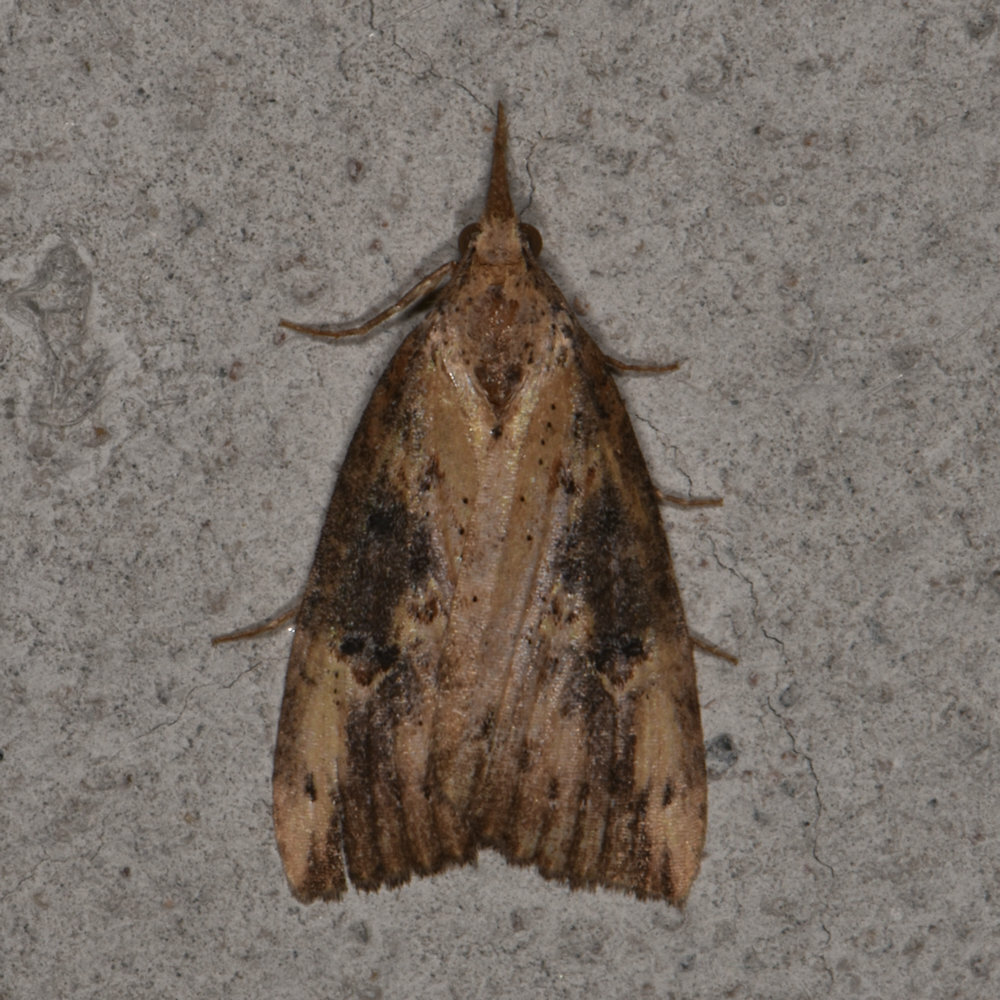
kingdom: Animalia
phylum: Arthropoda
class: Insecta
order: Lepidoptera
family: Erebidae
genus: Hypena
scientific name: Hypena humuli
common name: Hop vine snout
